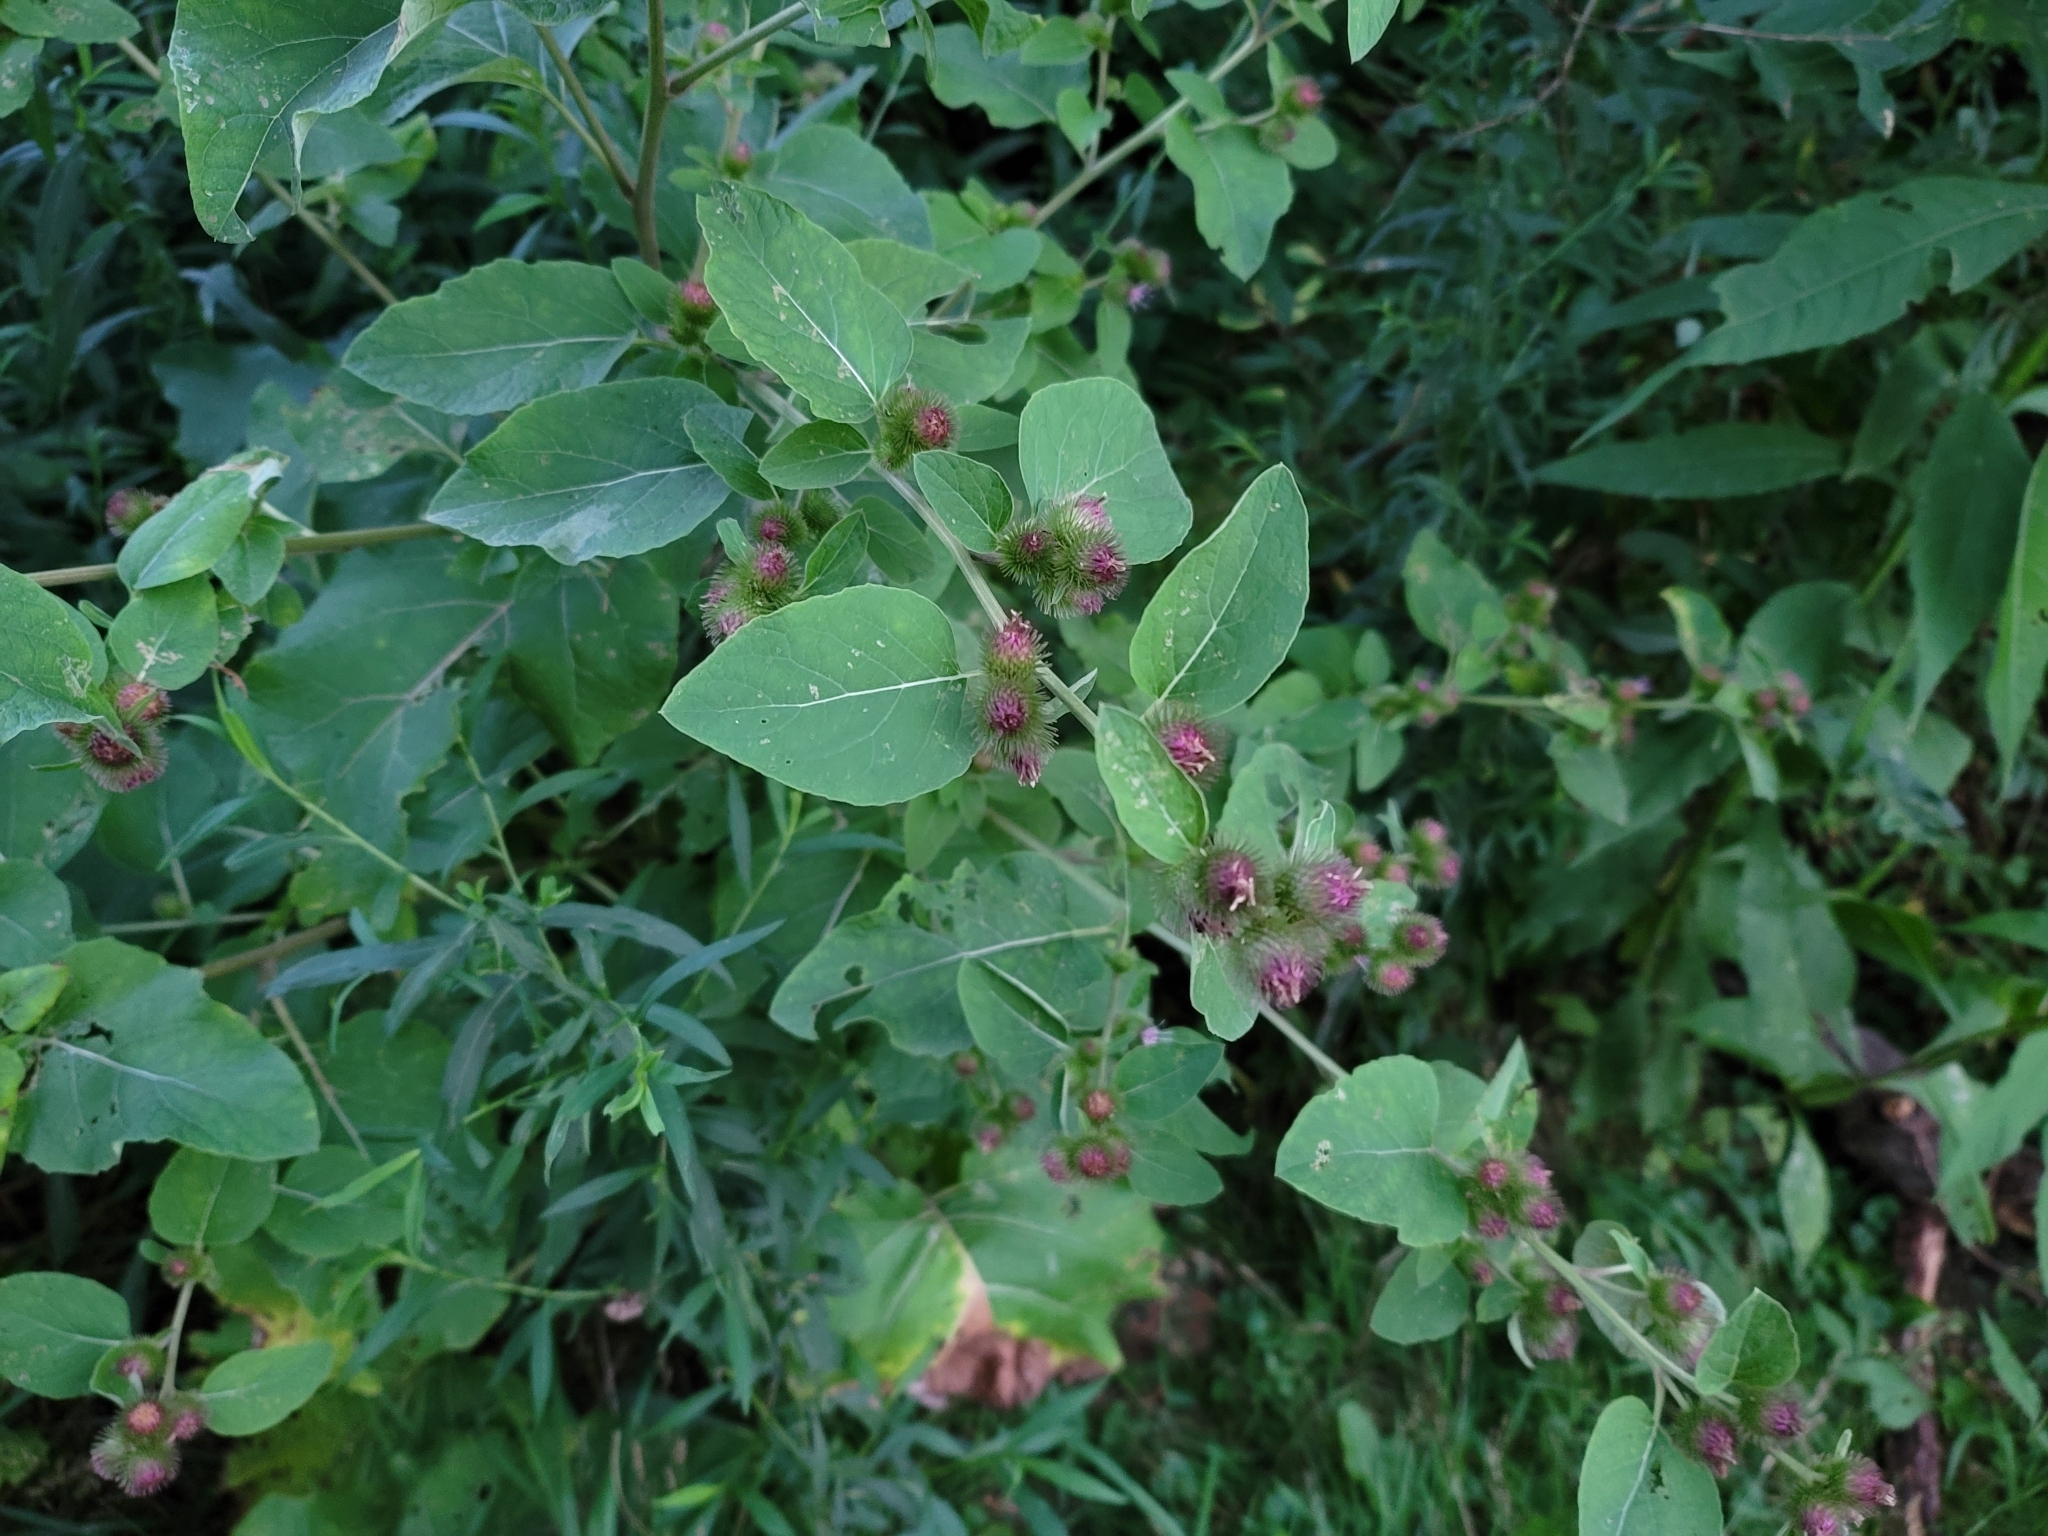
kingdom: Plantae
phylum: Tracheophyta
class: Magnoliopsida
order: Asterales
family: Asteraceae
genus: Arctium
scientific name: Arctium minus
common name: Lesser burdock
